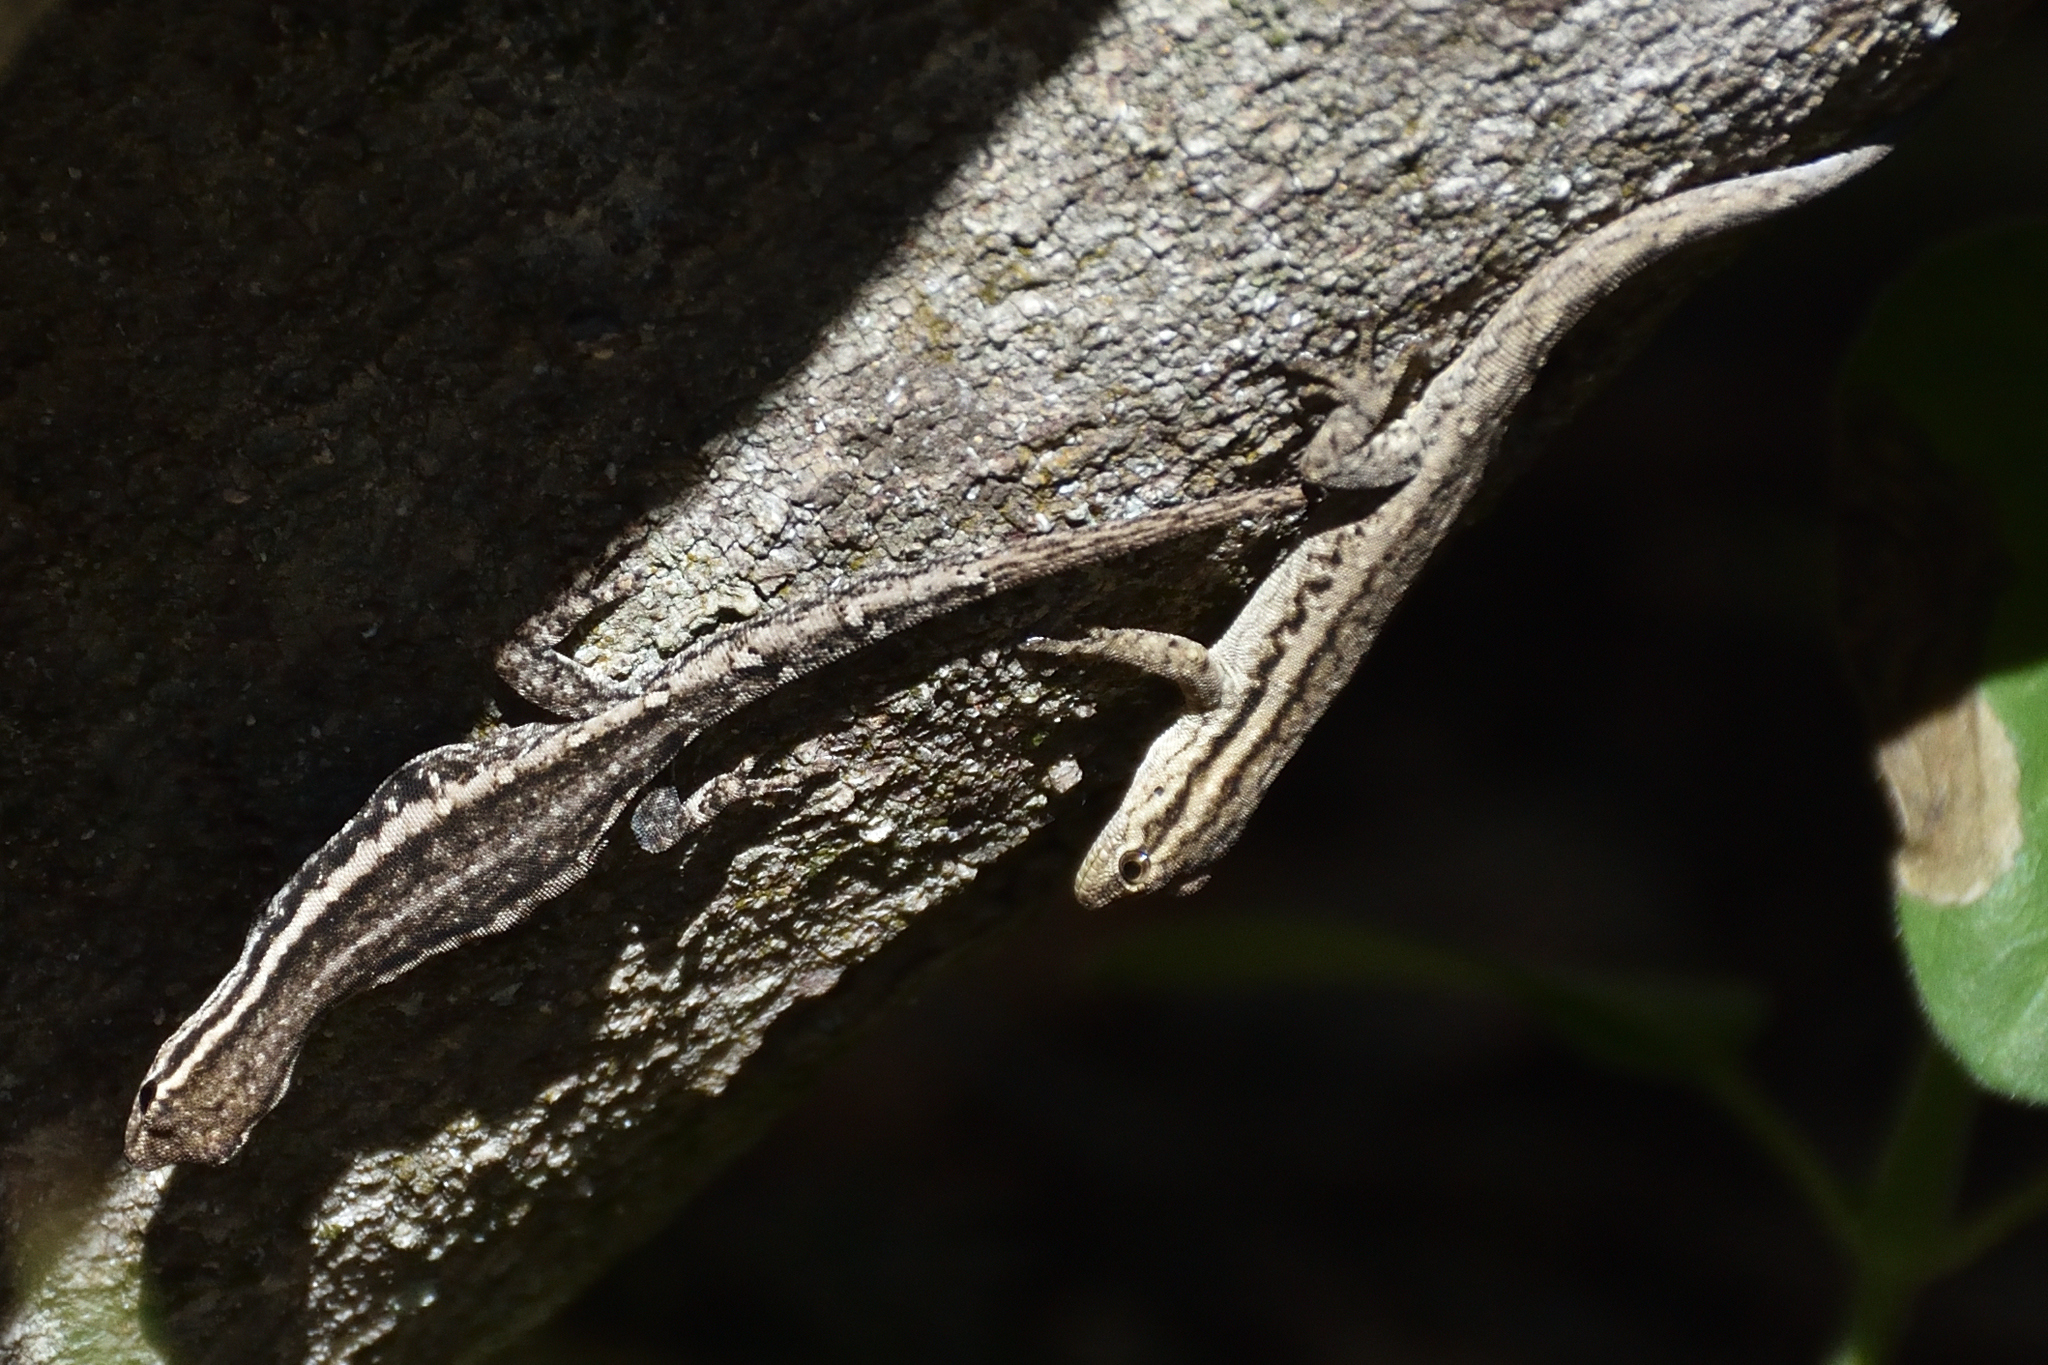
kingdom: Animalia
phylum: Chordata
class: Squamata
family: Gekkonidae
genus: Lygodactylus
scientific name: Lygodactylus capensis
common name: Cape dwarf gecko
